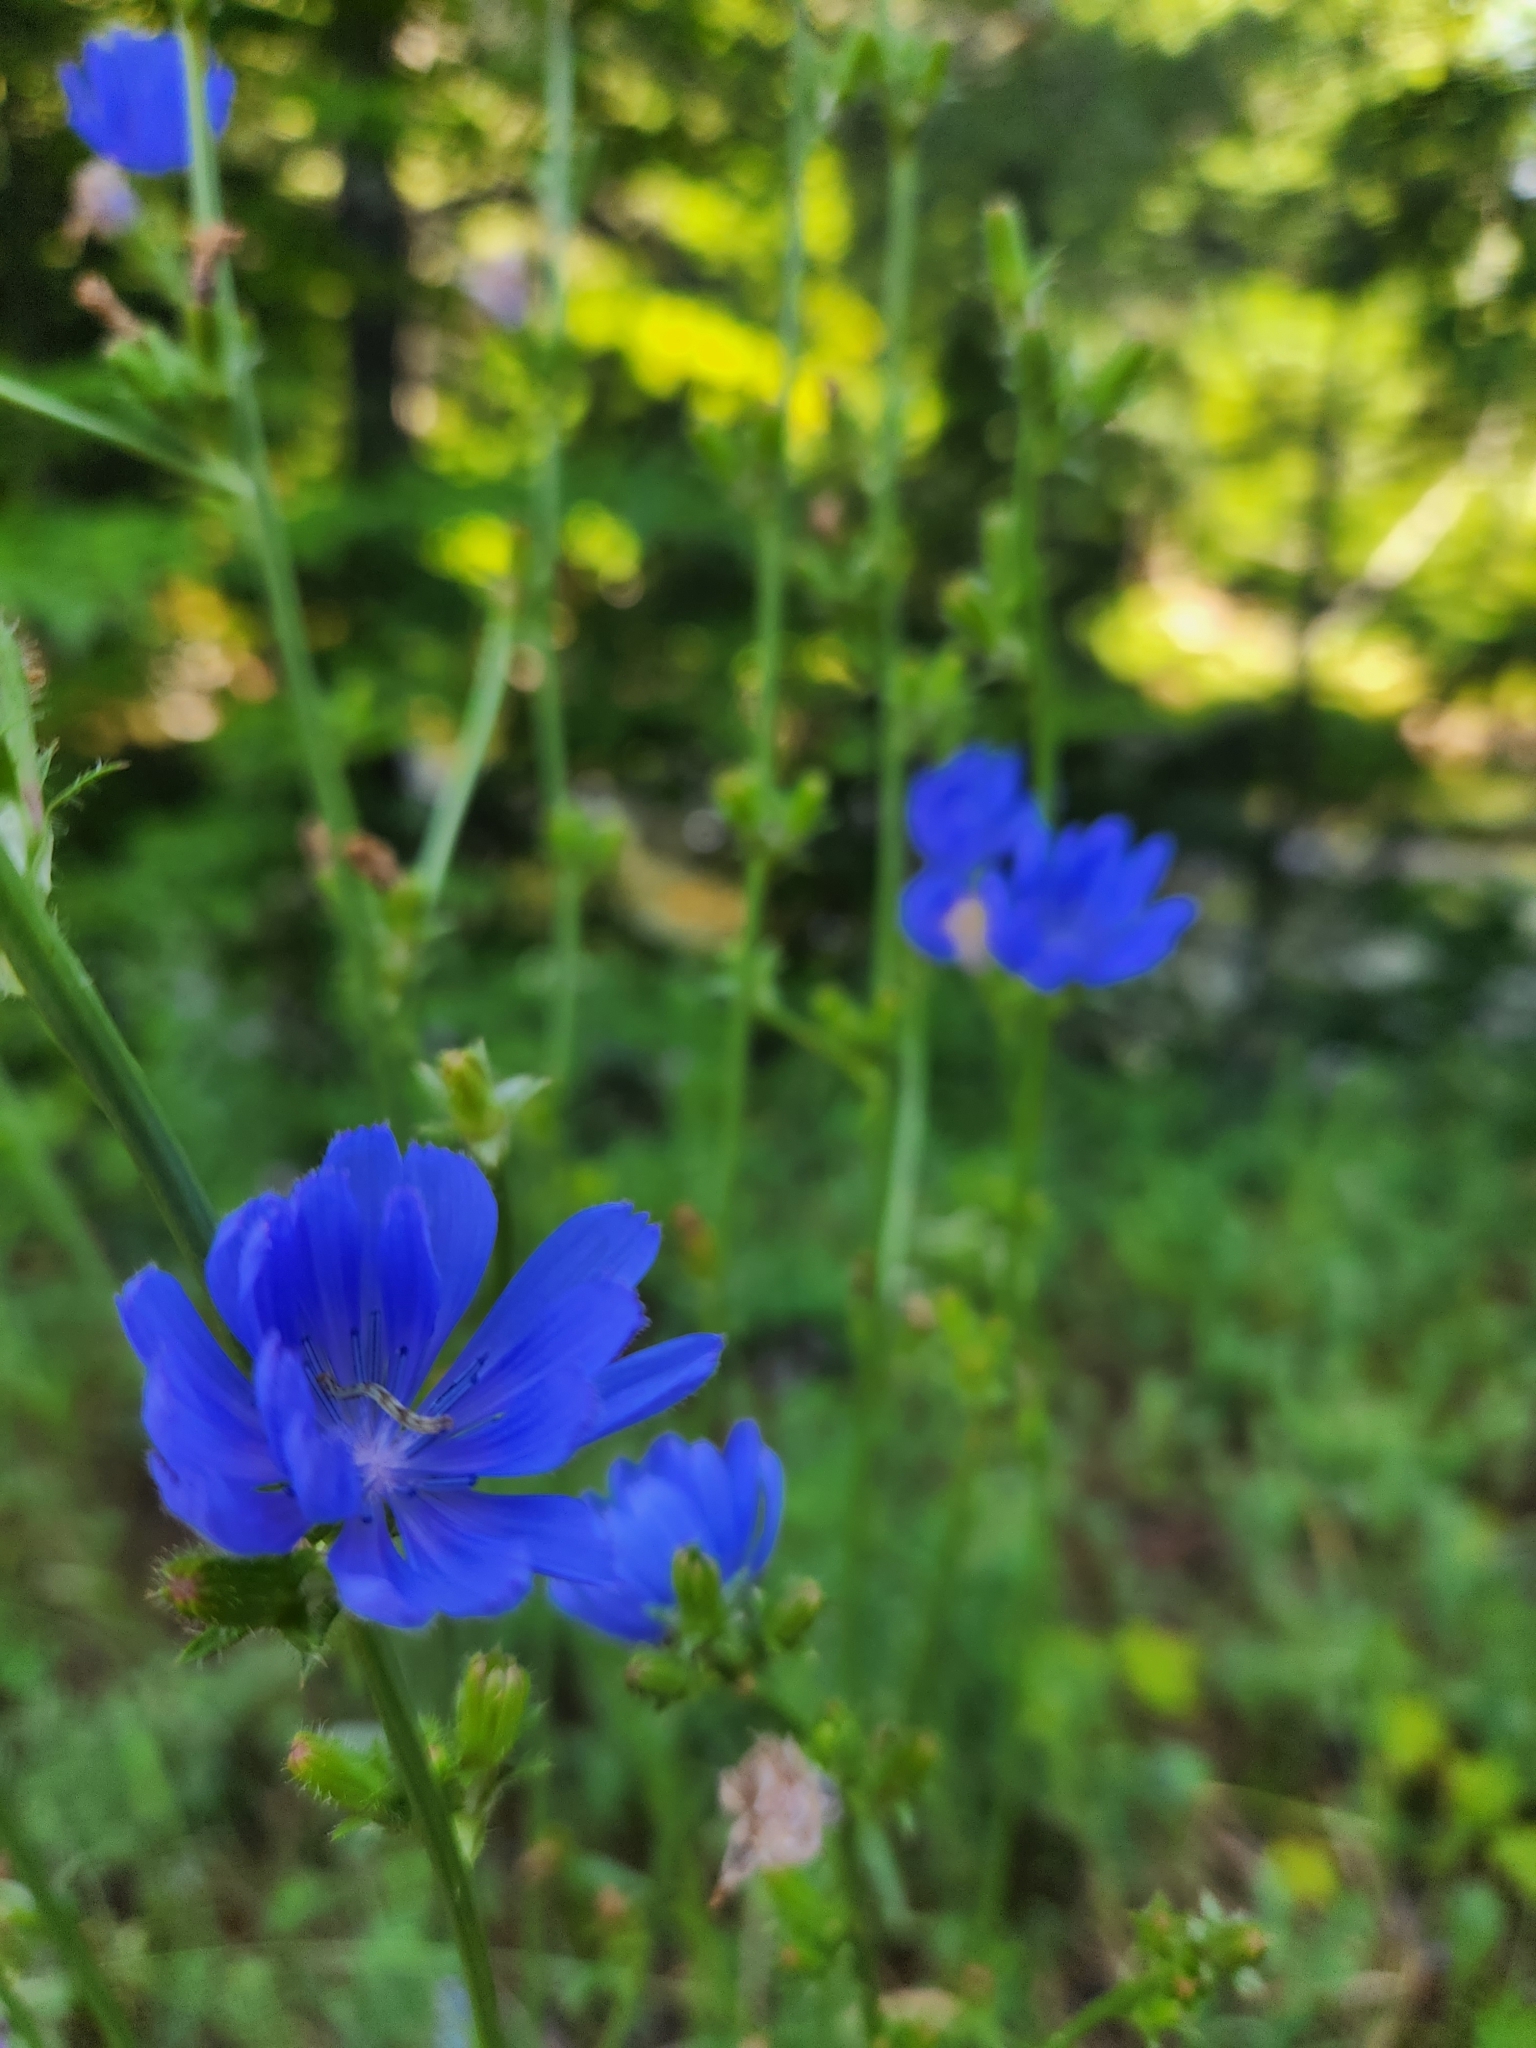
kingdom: Plantae
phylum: Tracheophyta
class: Magnoliopsida
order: Asterales
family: Asteraceae
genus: Cichorium
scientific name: Cichorium intybus
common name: Chicory
